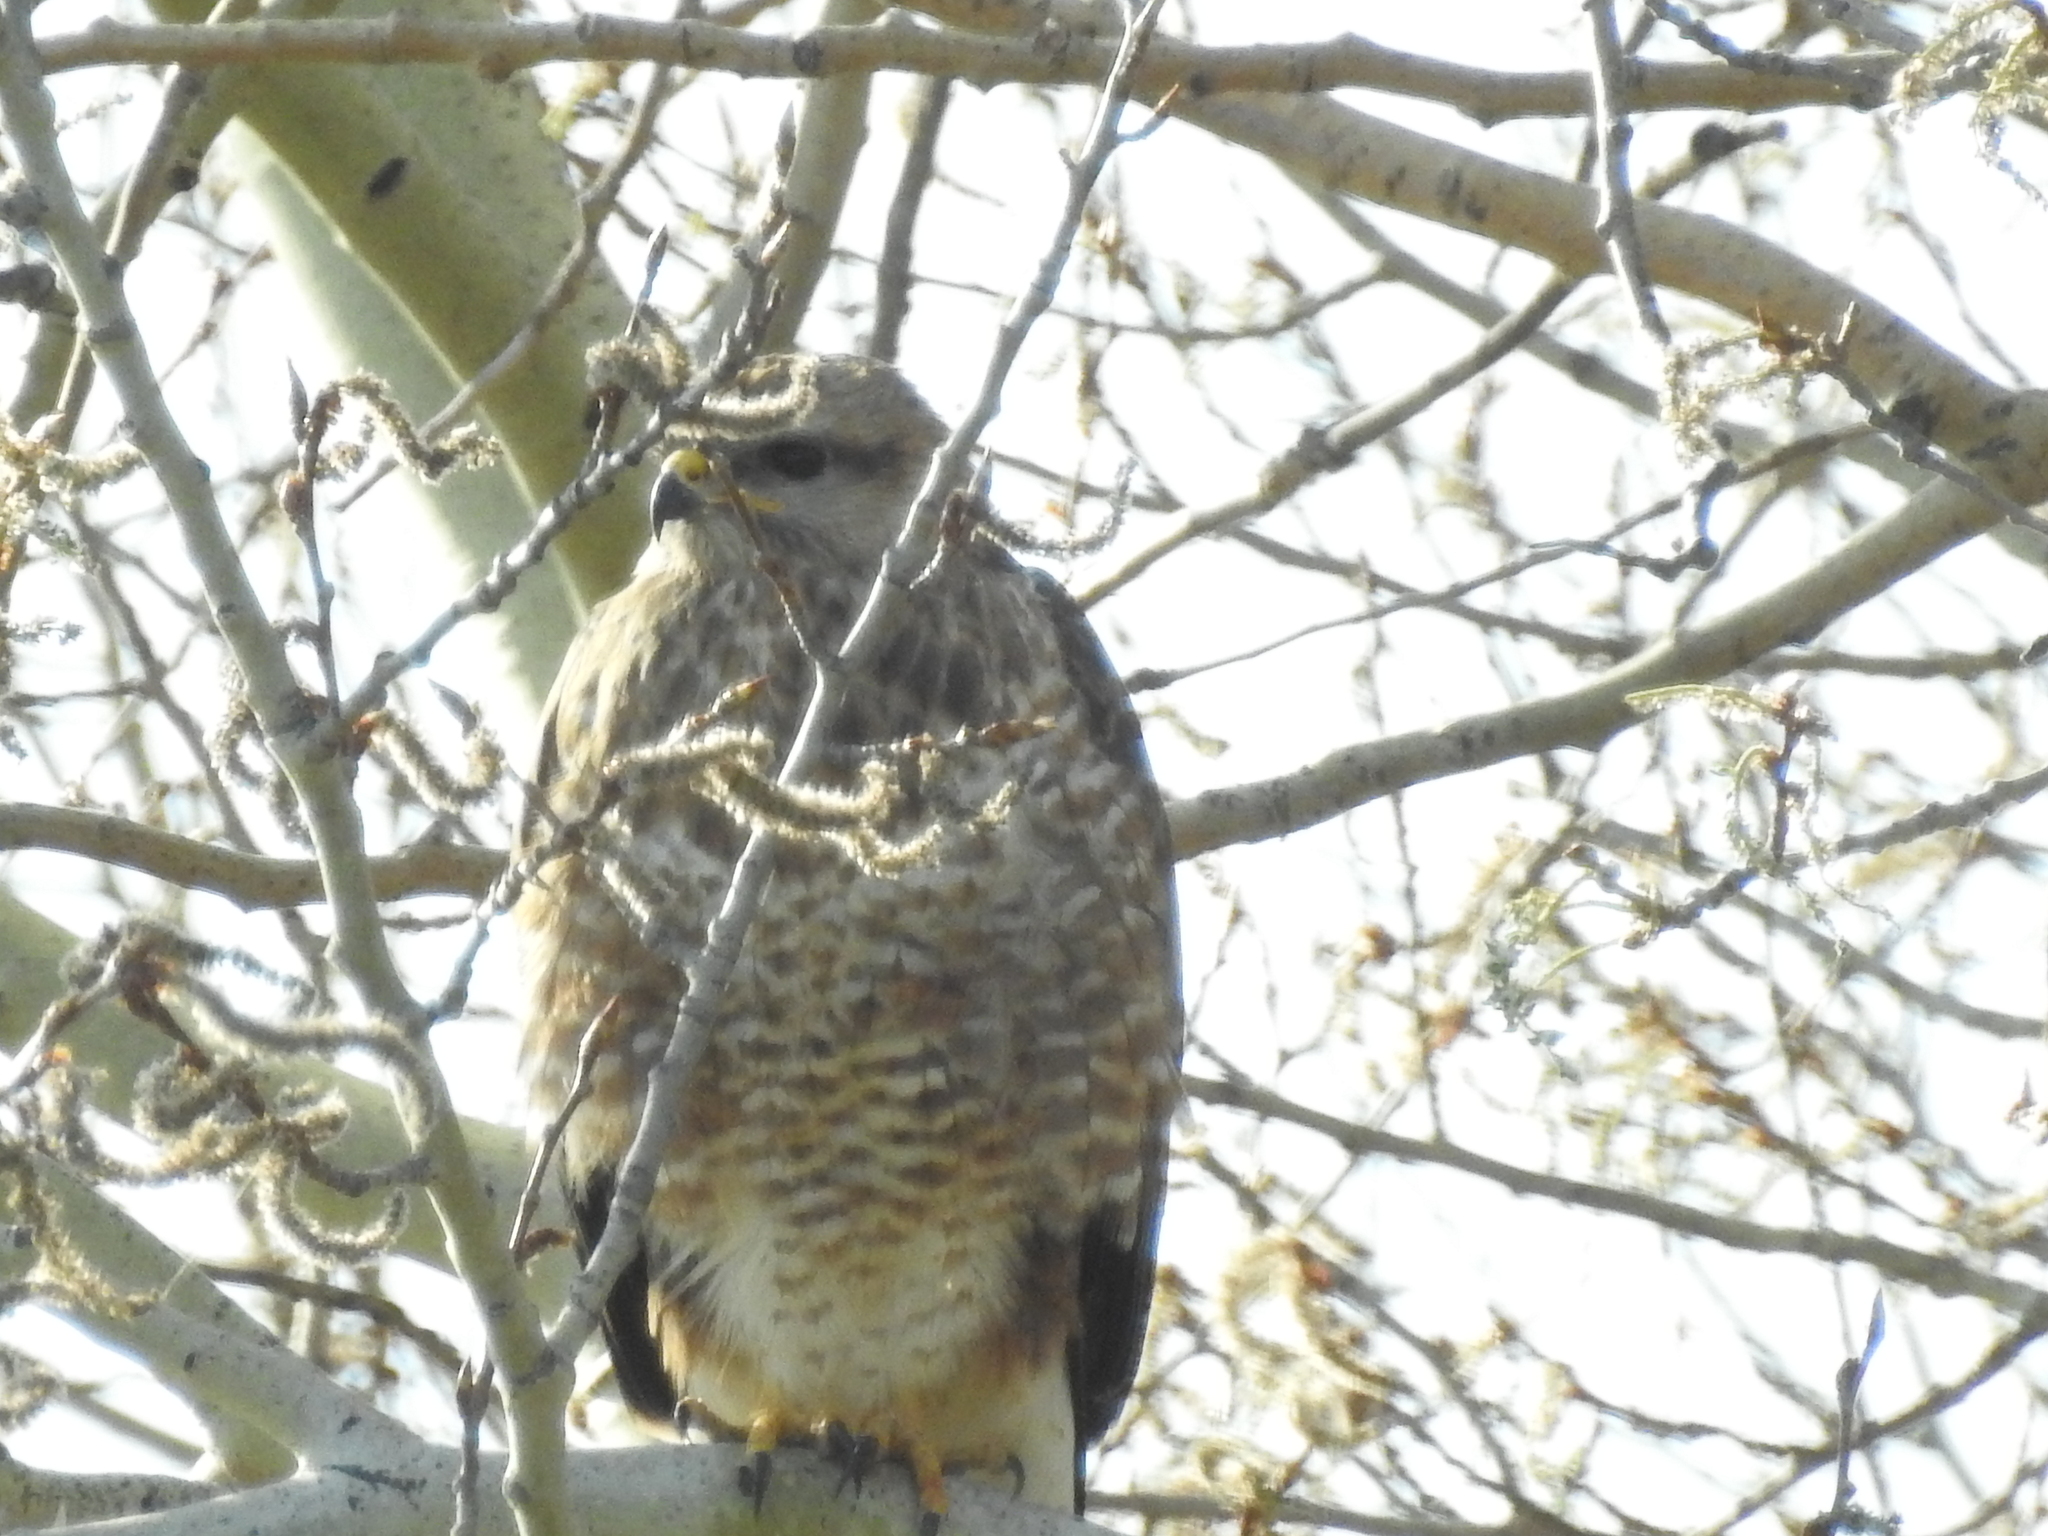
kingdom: Animalia
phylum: Chordata
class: Aves
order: Accipitriformes
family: Accipitridae
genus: Buteo
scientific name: Buteo buteo
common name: Common buzzard
